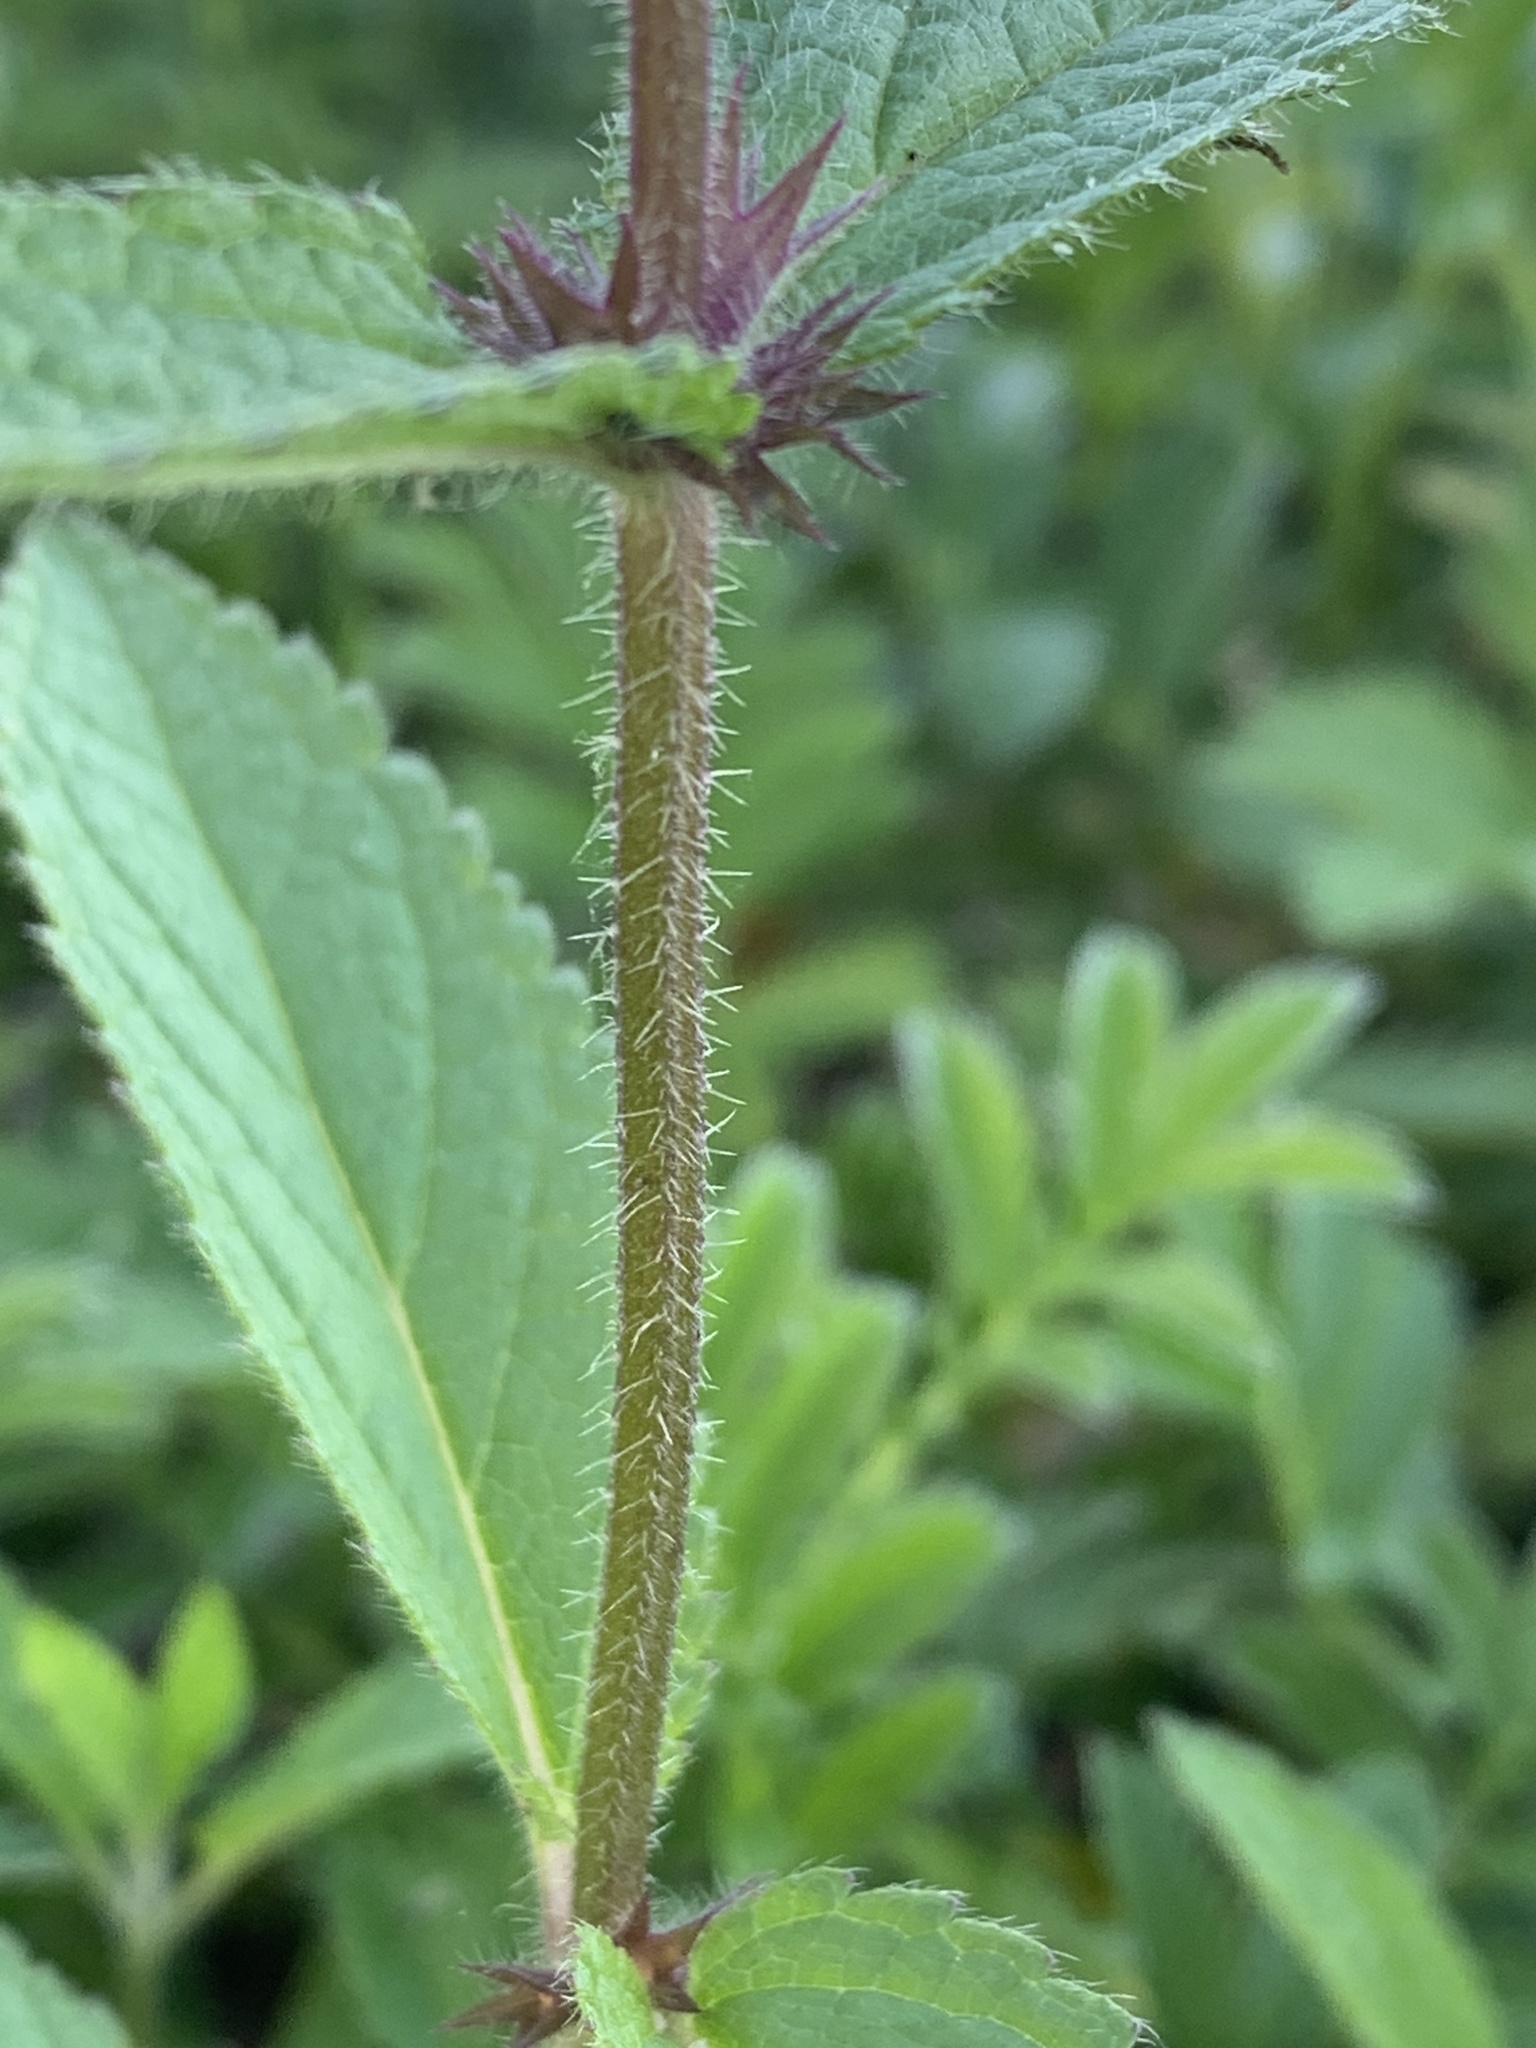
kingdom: Plantae
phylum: Tracheophyta
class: Magnoliopsida
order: Lamiales
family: Lamiaceae
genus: Stachys
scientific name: Stachys palustris
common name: Marsh woundwort
